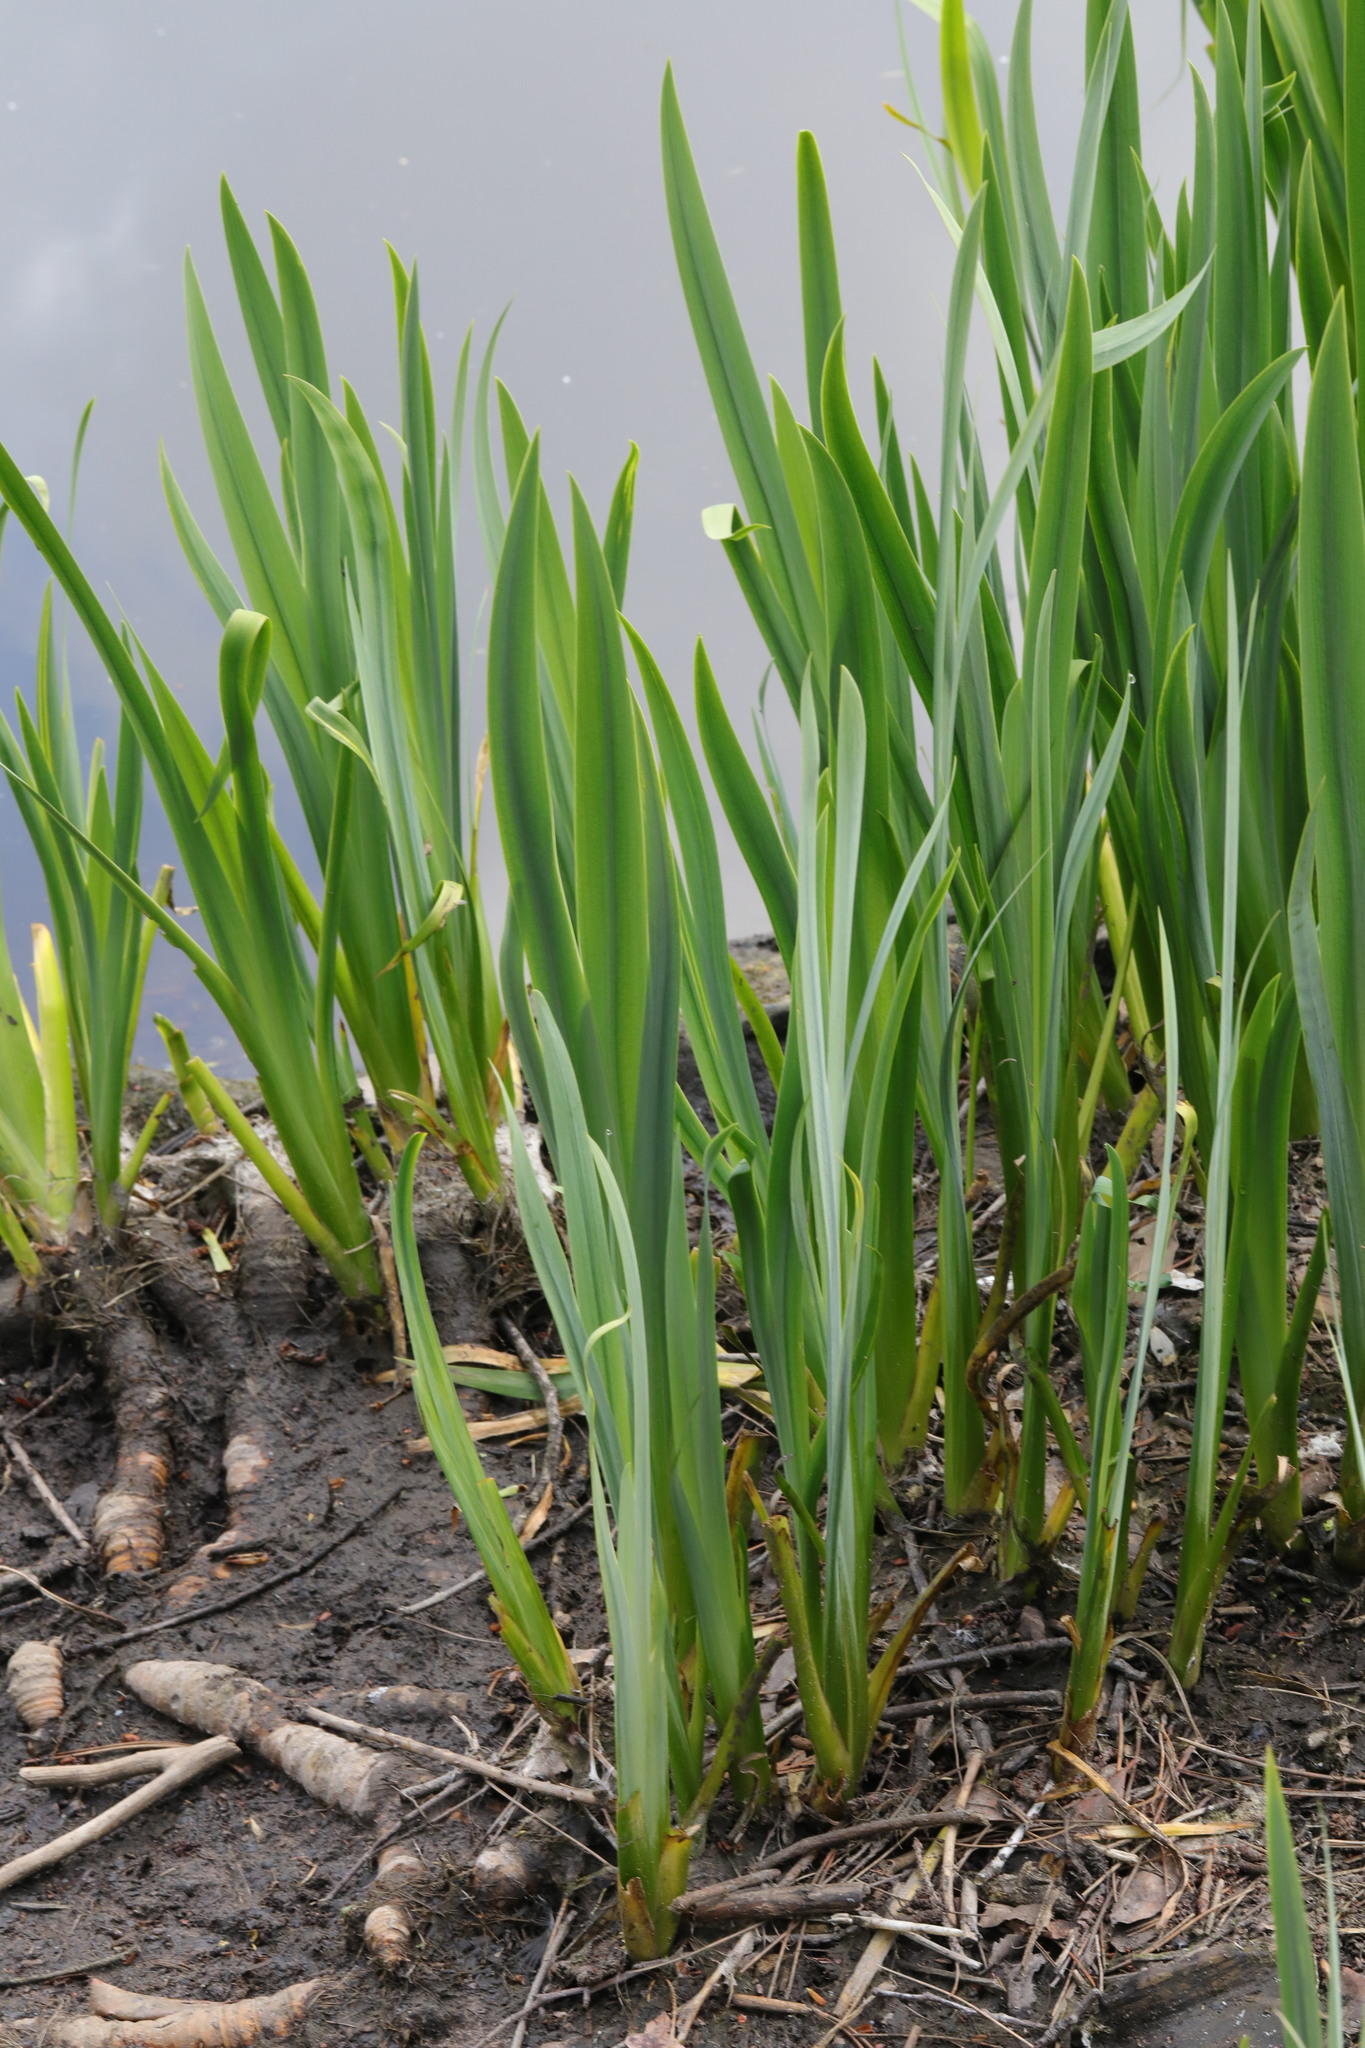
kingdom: Plantae
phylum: Tracheophyta
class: Liliopsida
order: Asparagales
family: Iridaceae
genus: Iris
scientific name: Iris pseudacorus
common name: Yellow flag
